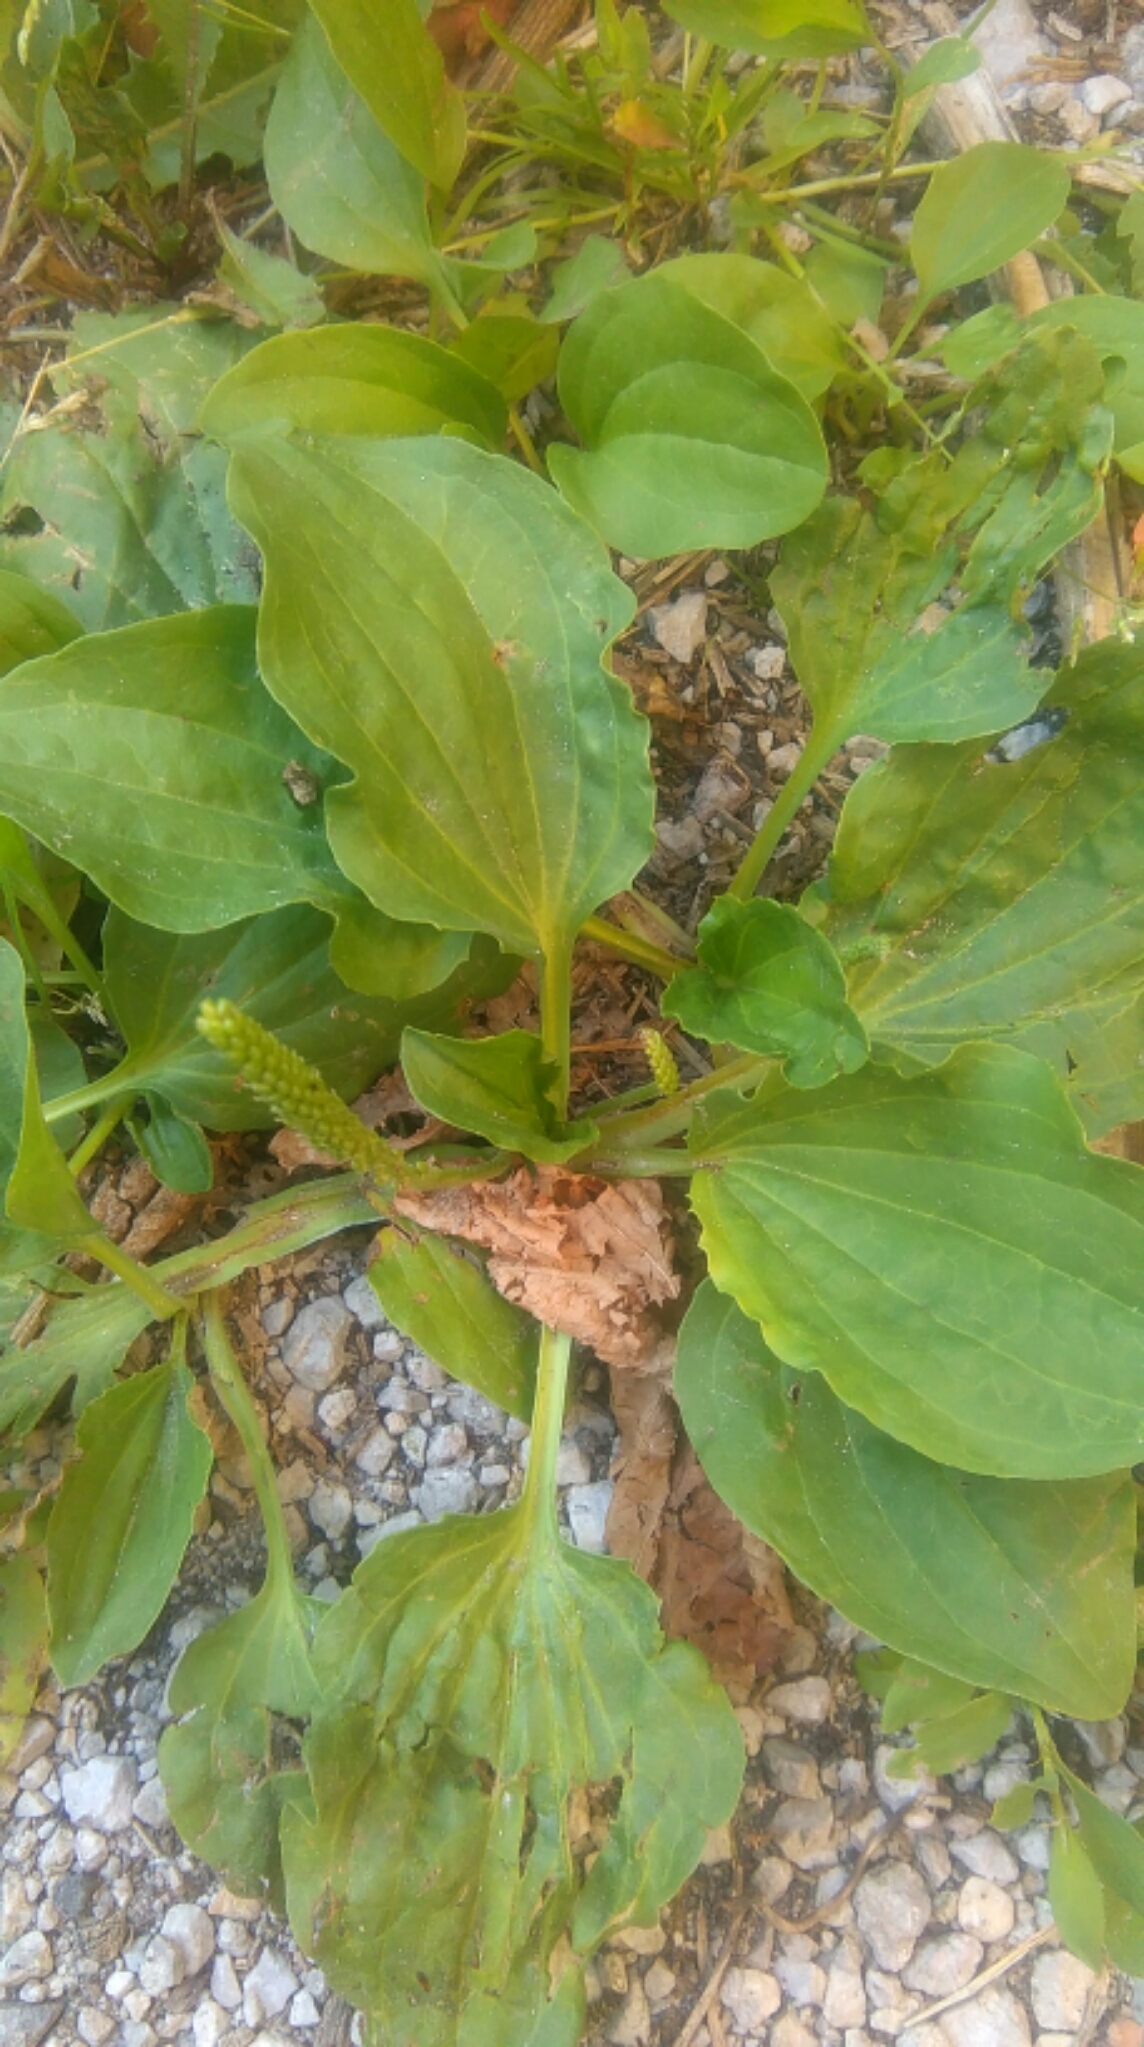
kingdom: Plantae
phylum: Tracheophyta
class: Magnoliopsida
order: Lamiales
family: Plantaginaceae
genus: Plantago
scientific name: Plantago major
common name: Common plantain
